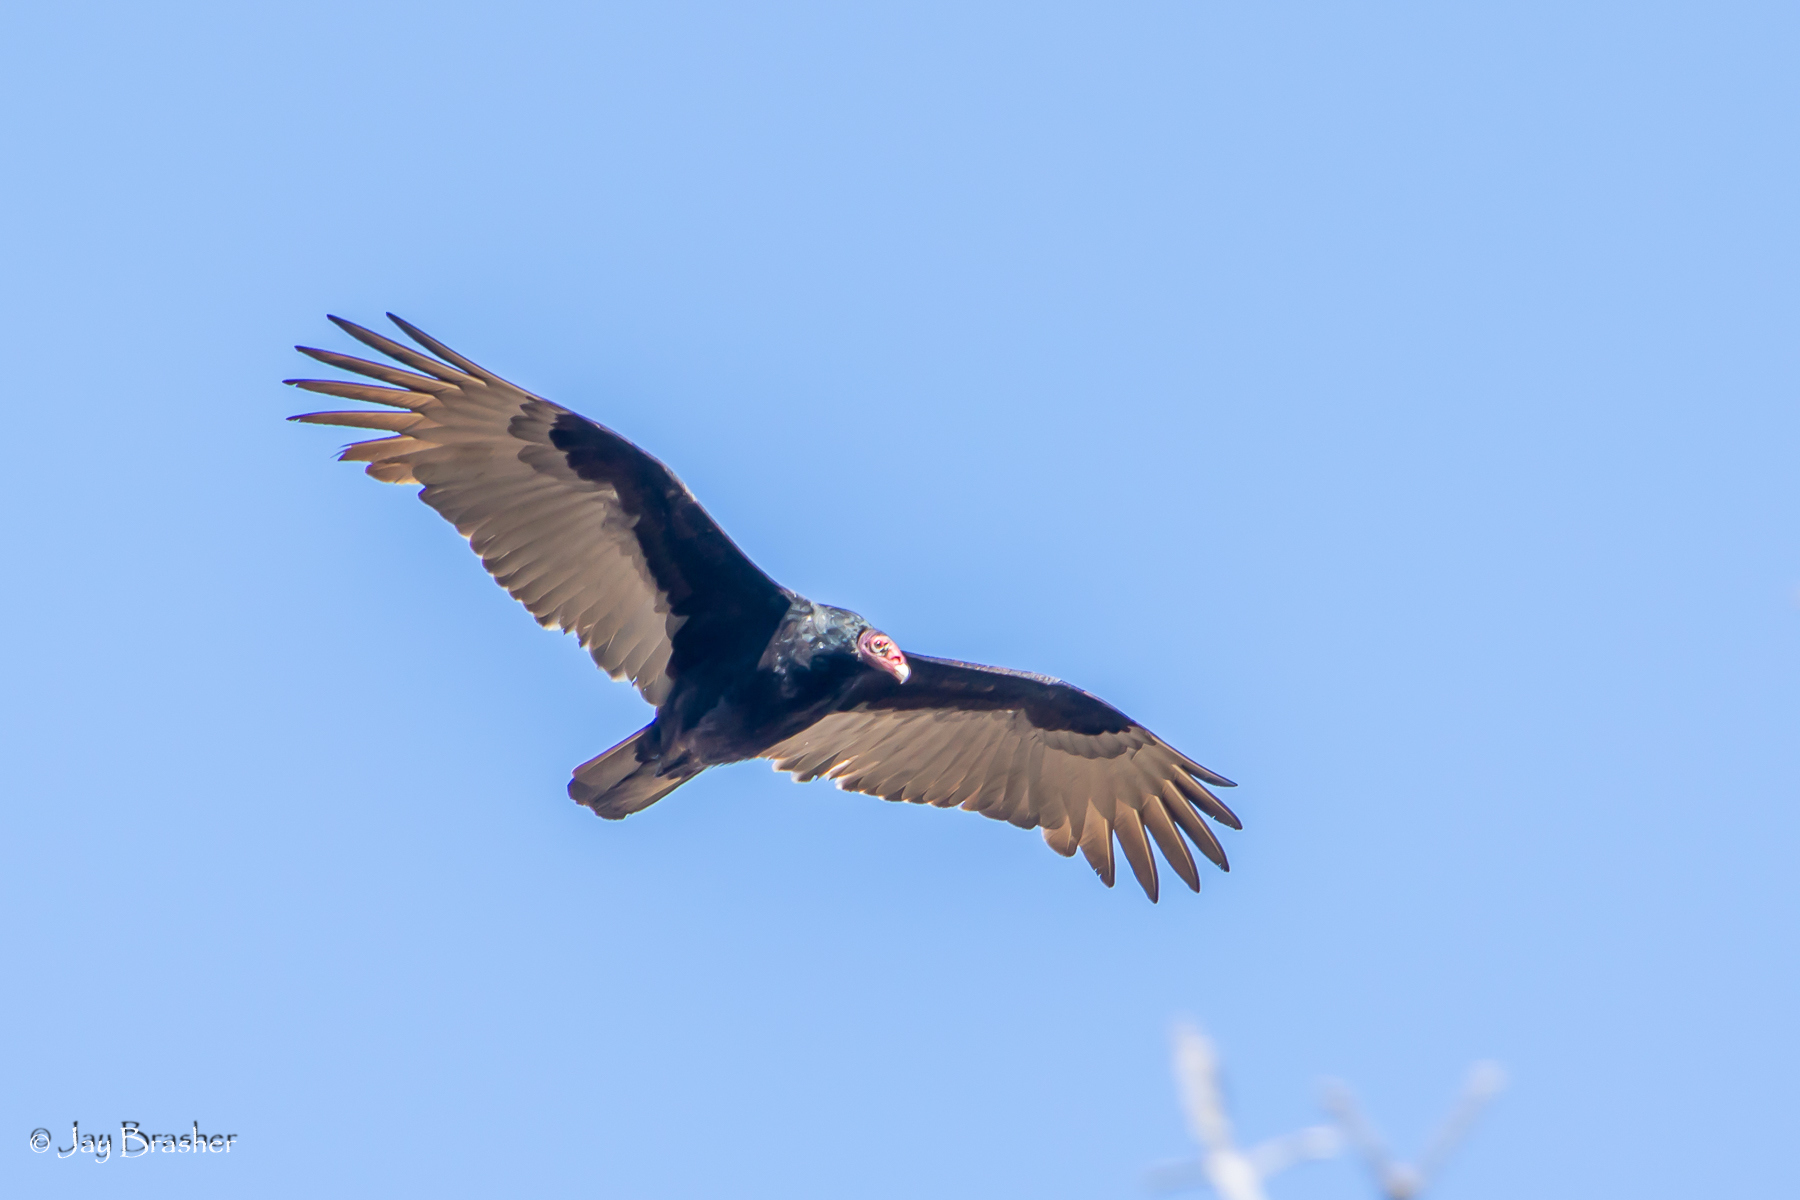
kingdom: Animalia
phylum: Chordata
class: Aves
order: Accipitriformes
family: Cathartidae
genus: Cathartes
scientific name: Cathartes aura
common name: Turkey vulture
